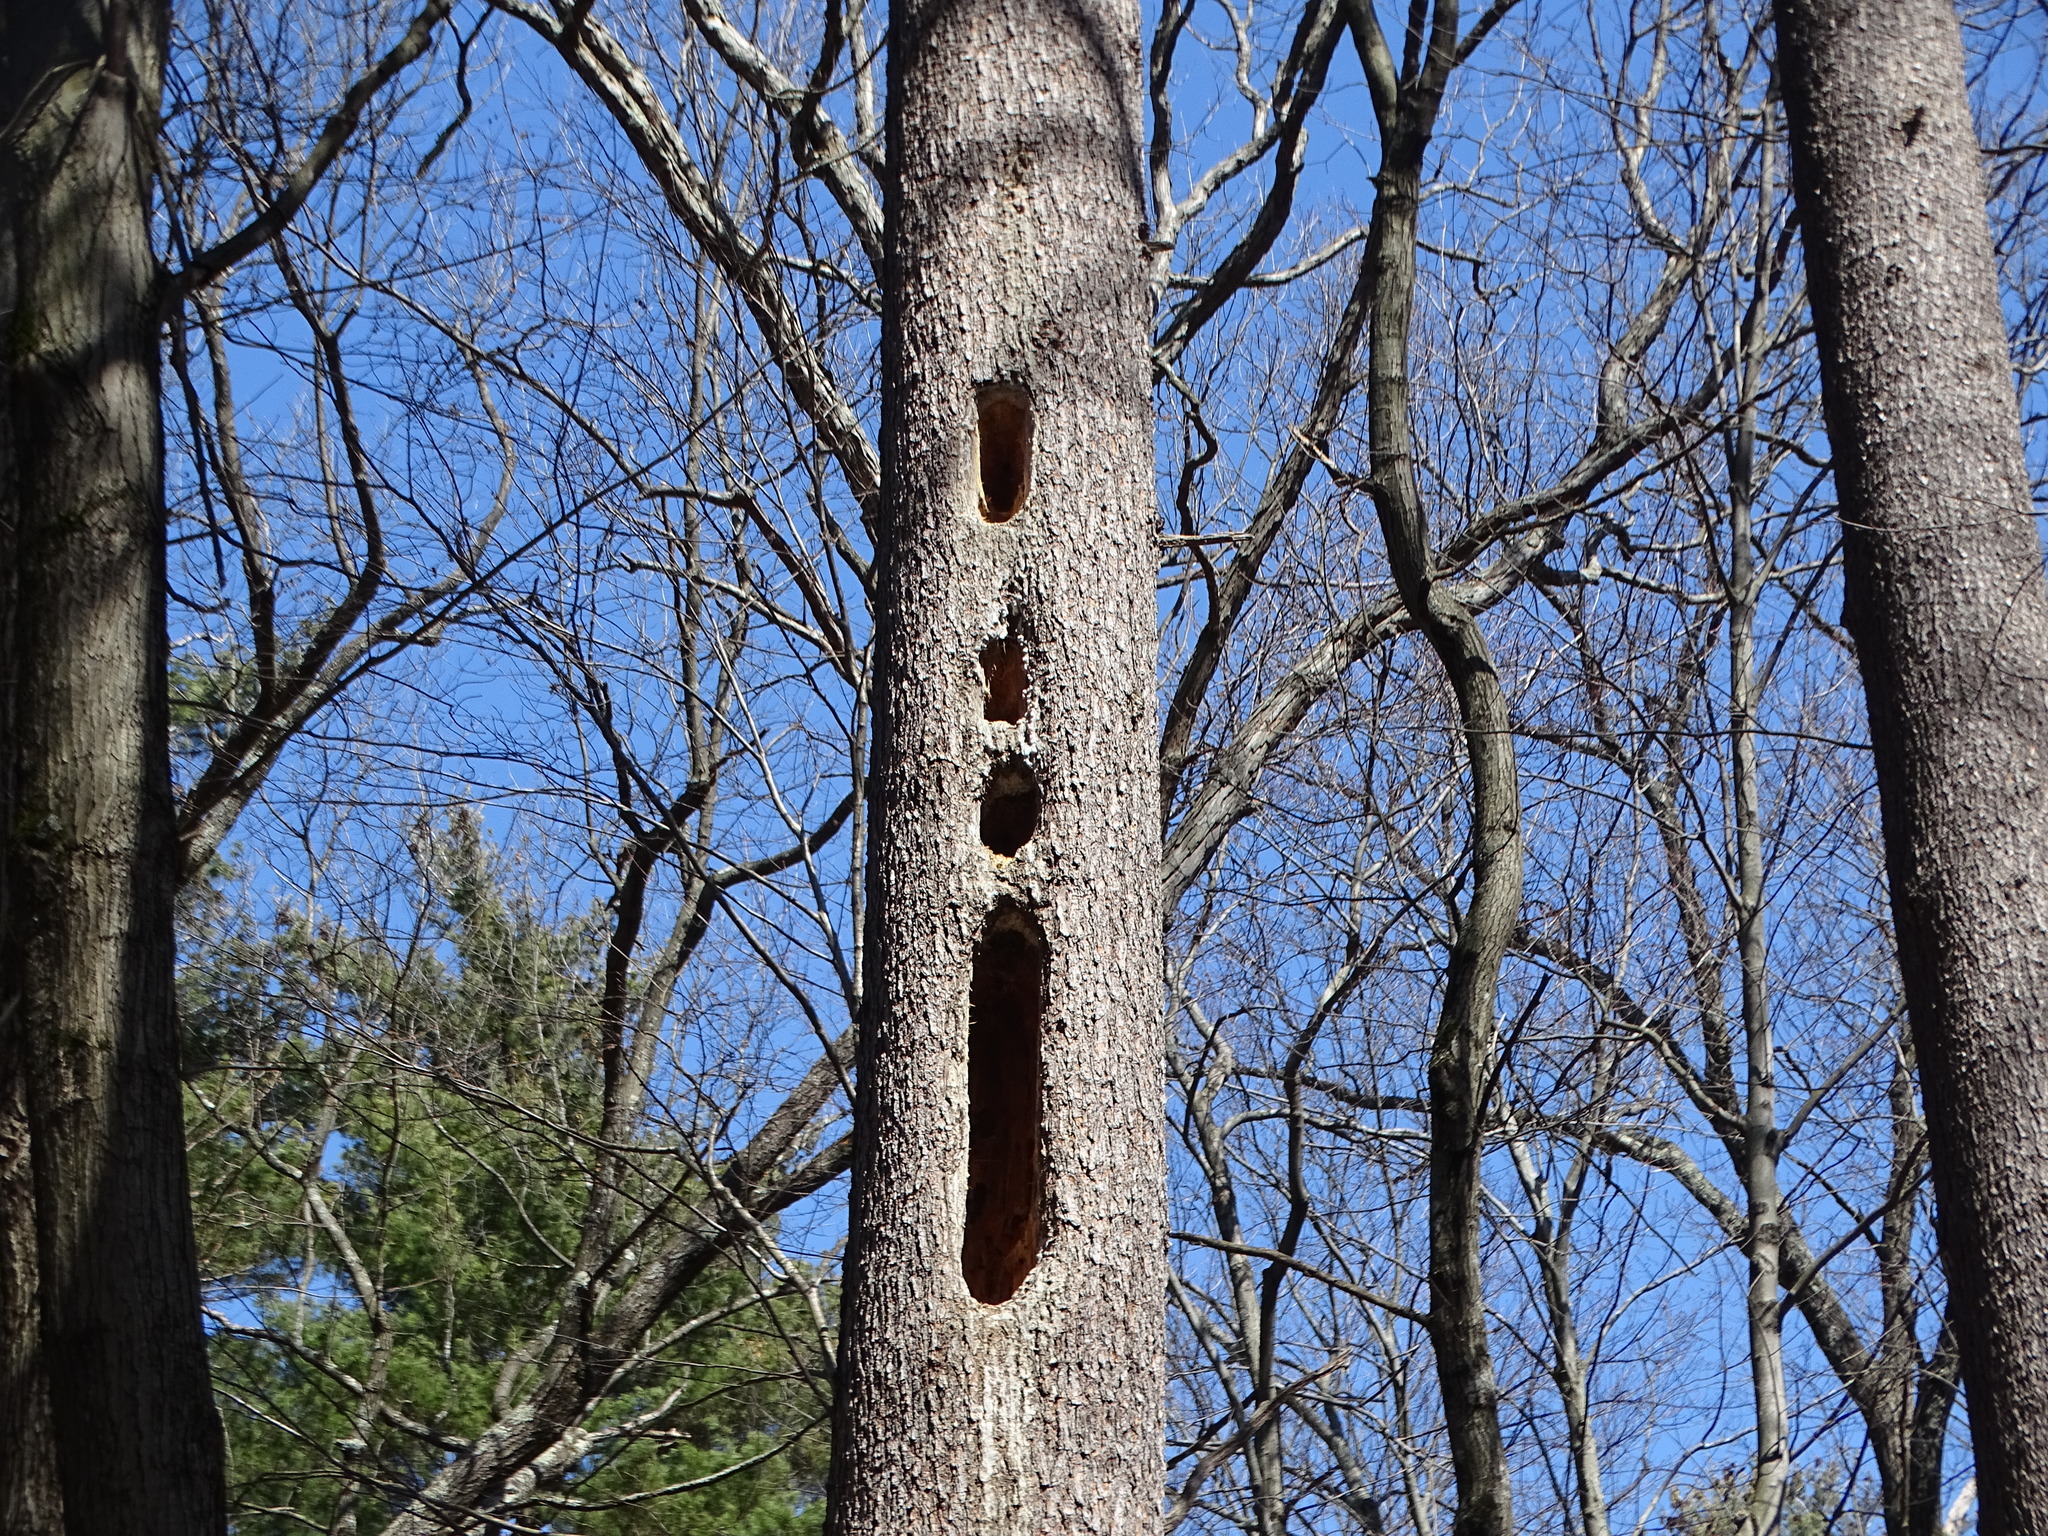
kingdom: Animalia
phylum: Chordata
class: Aves
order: Piciformes
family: Picidae
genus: Dryocopus
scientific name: Dryocopus pileatus
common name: Pileated woodpecker
